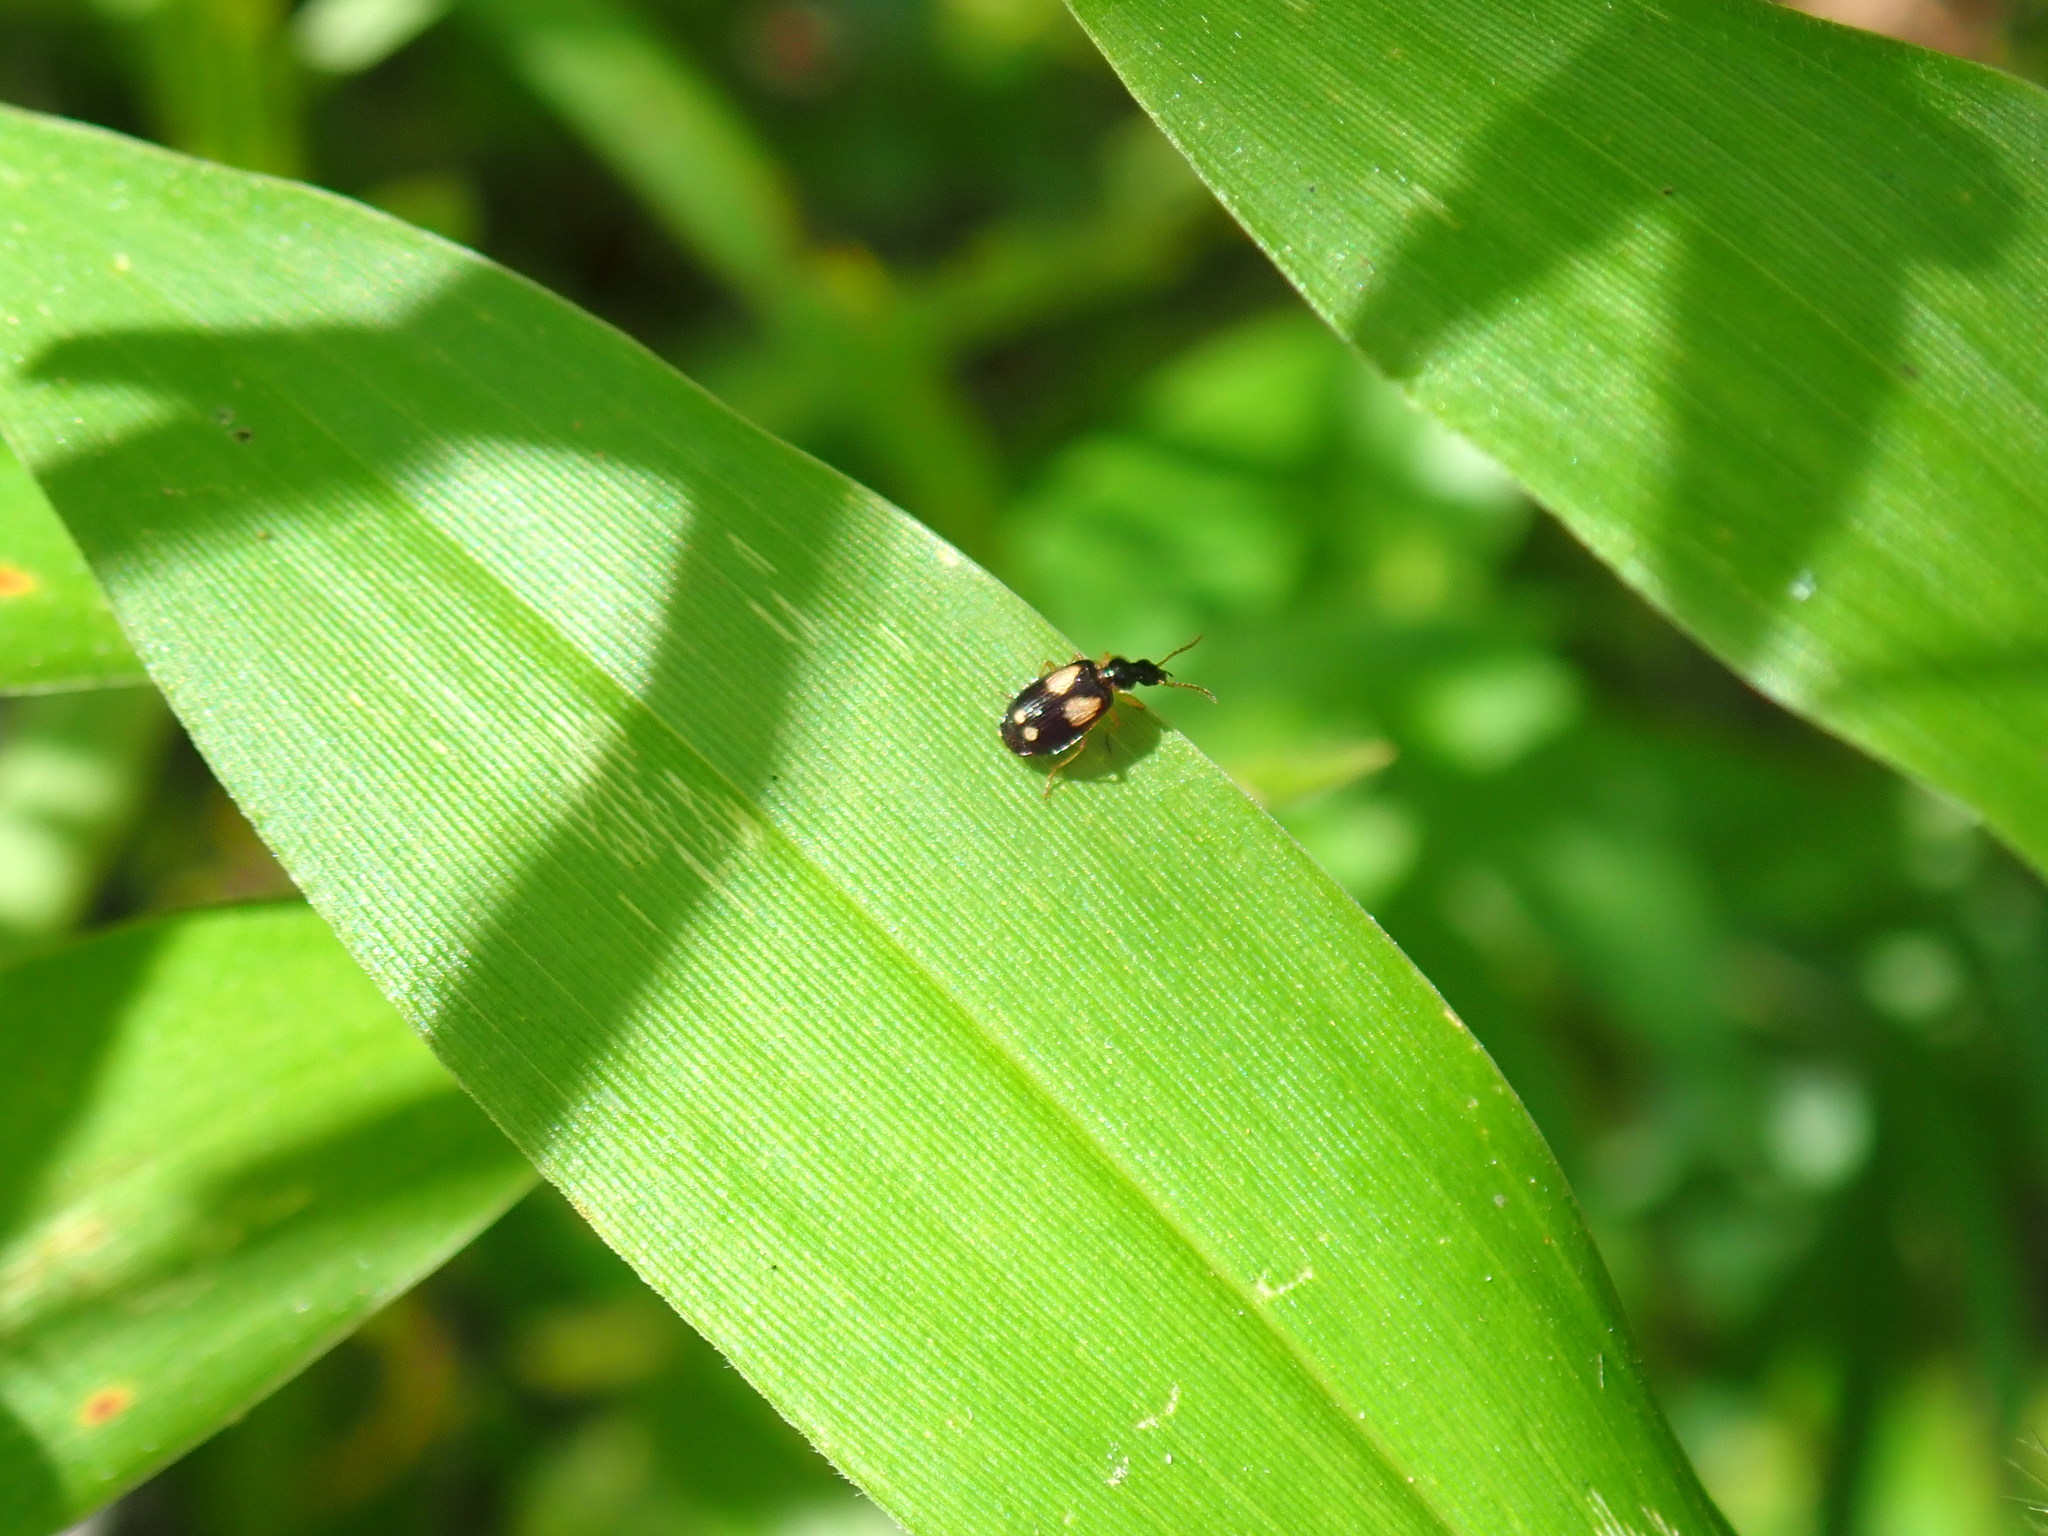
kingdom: Animalia
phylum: Arthropoda
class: Insecta
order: Coleoptera
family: Carabidae
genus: Lebia
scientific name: Lebia ornata
